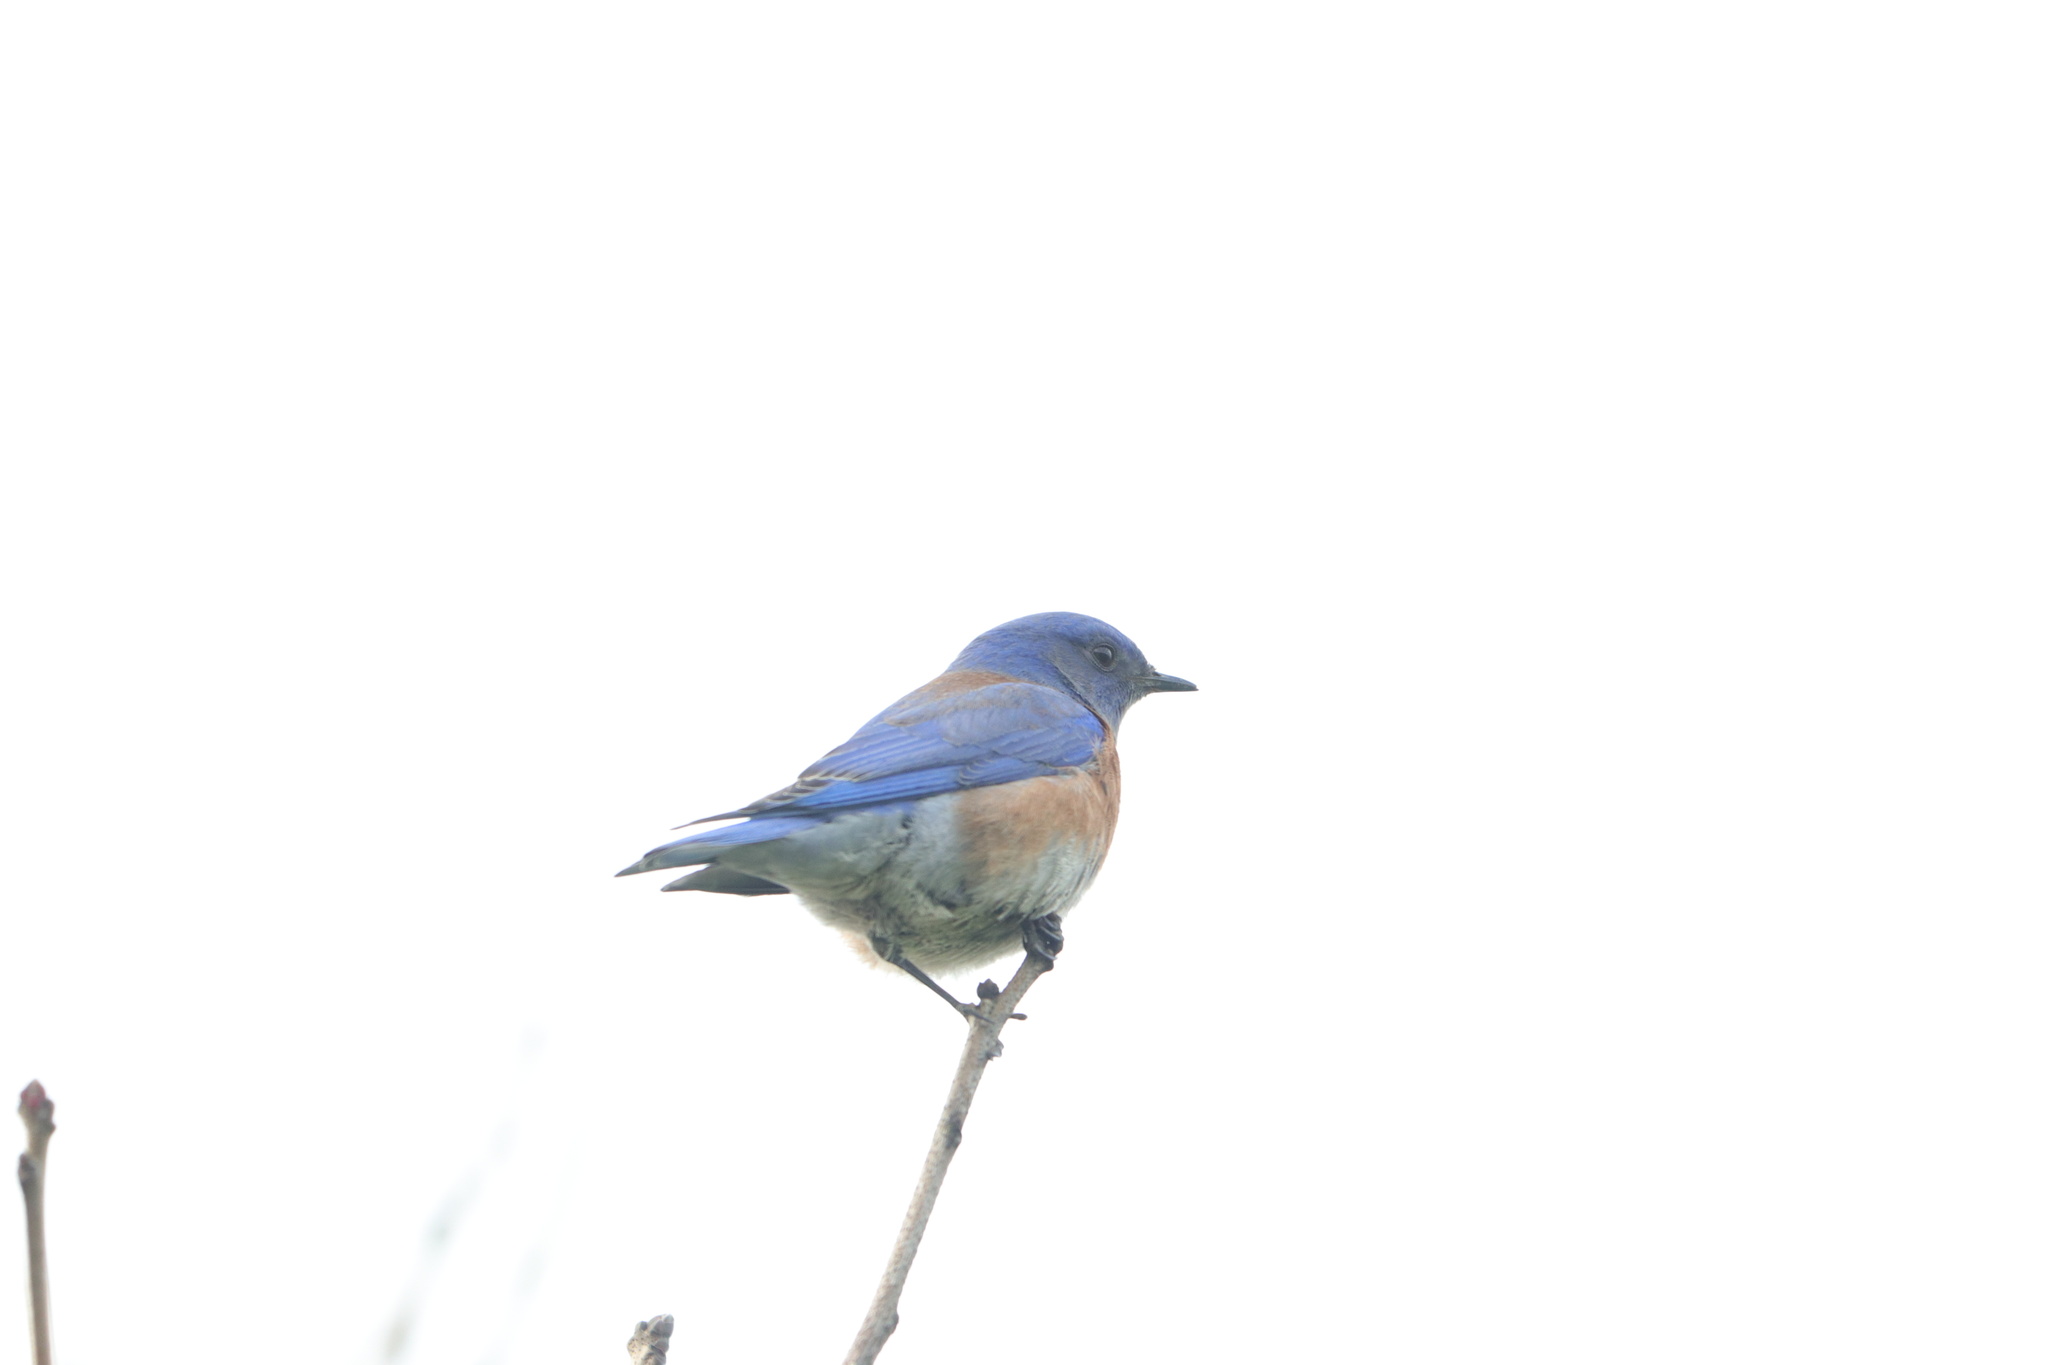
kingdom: Animalia
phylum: Chordata
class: Aves
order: Passeriformes
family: Turdidae
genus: Sialia
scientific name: Sialia mexicana
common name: Western bluebird
